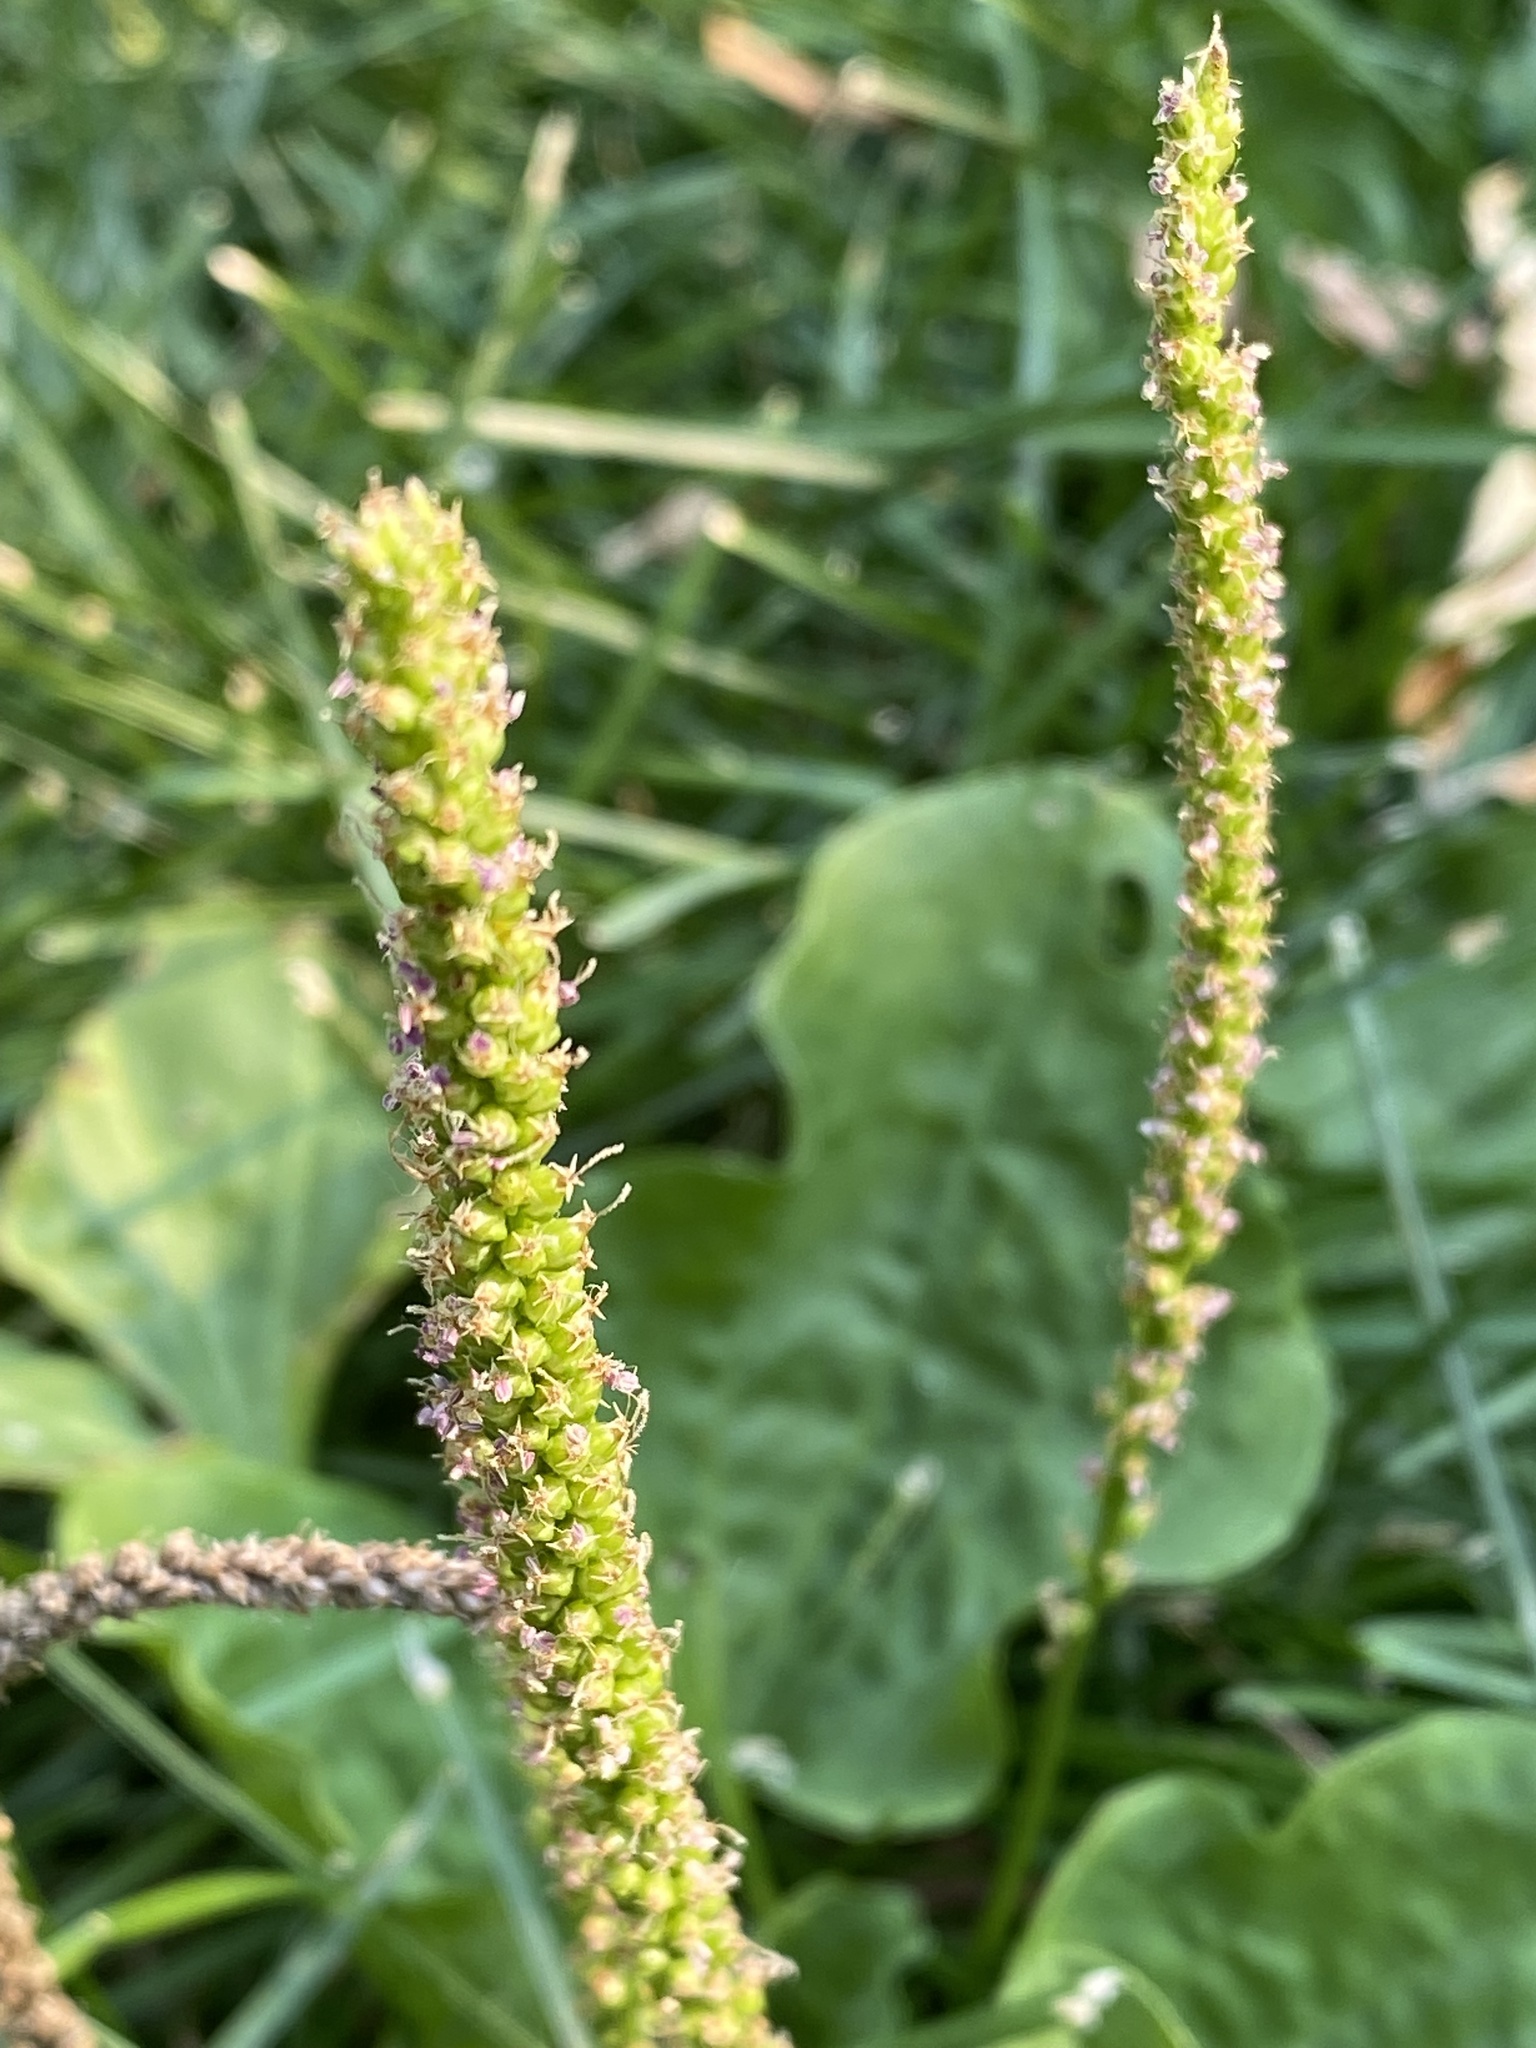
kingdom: Plantae
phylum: Tracheophyta
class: Magnoliopsida
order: Lamiales
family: Plantaginaceae
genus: Plantago
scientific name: Plantago major
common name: Common plantain
